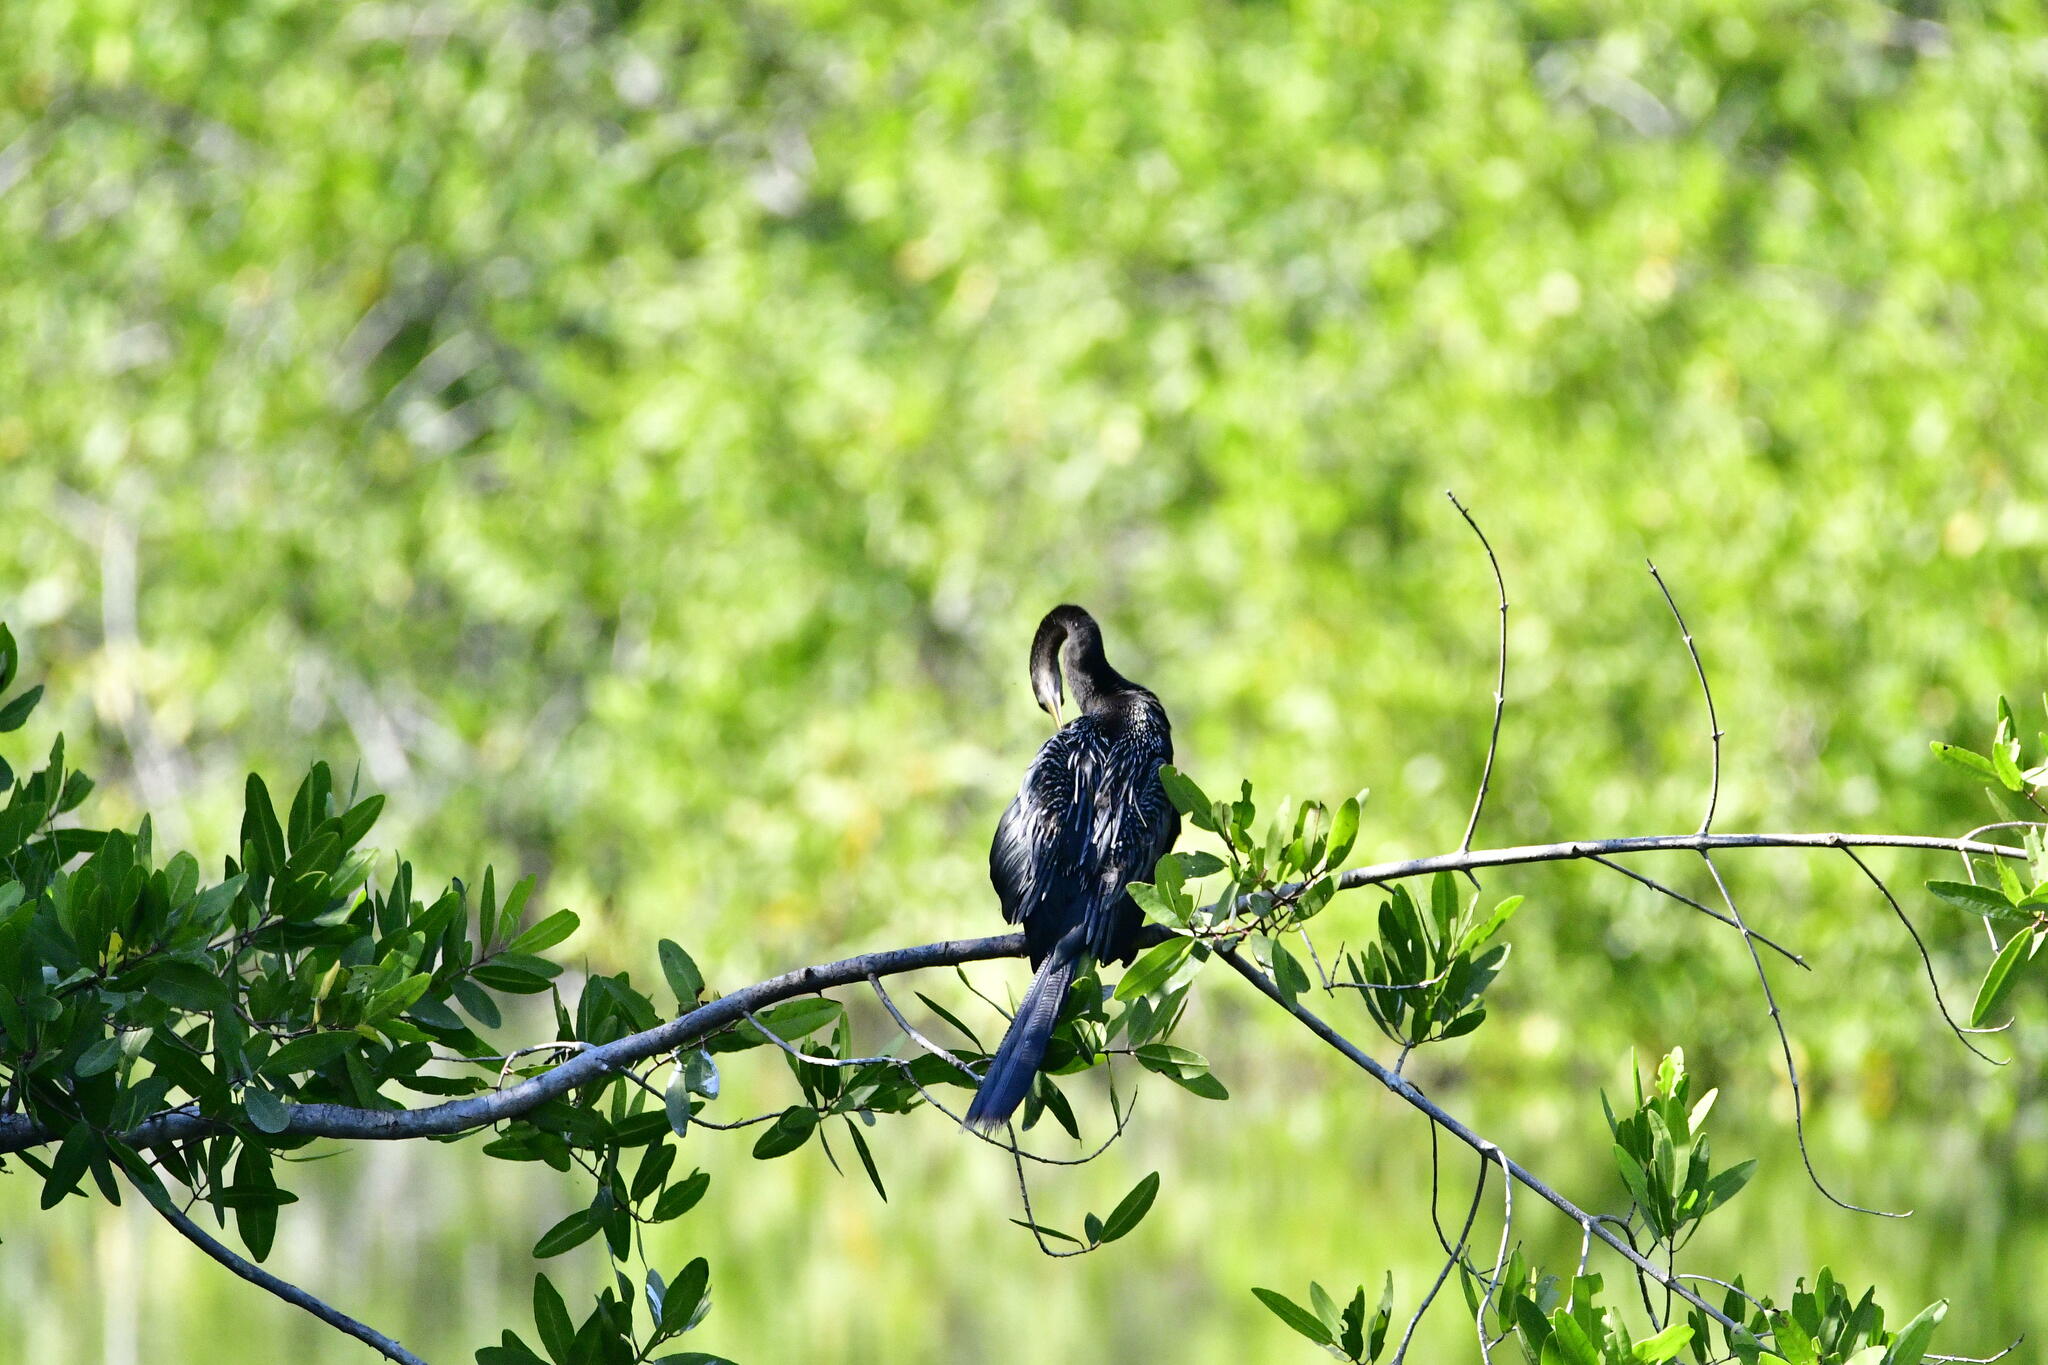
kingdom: Animalia
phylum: Chordata
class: Aves
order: Suliformes
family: Anhingidae
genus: Anhinga
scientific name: Anhinga anhinga
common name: Anhinga
